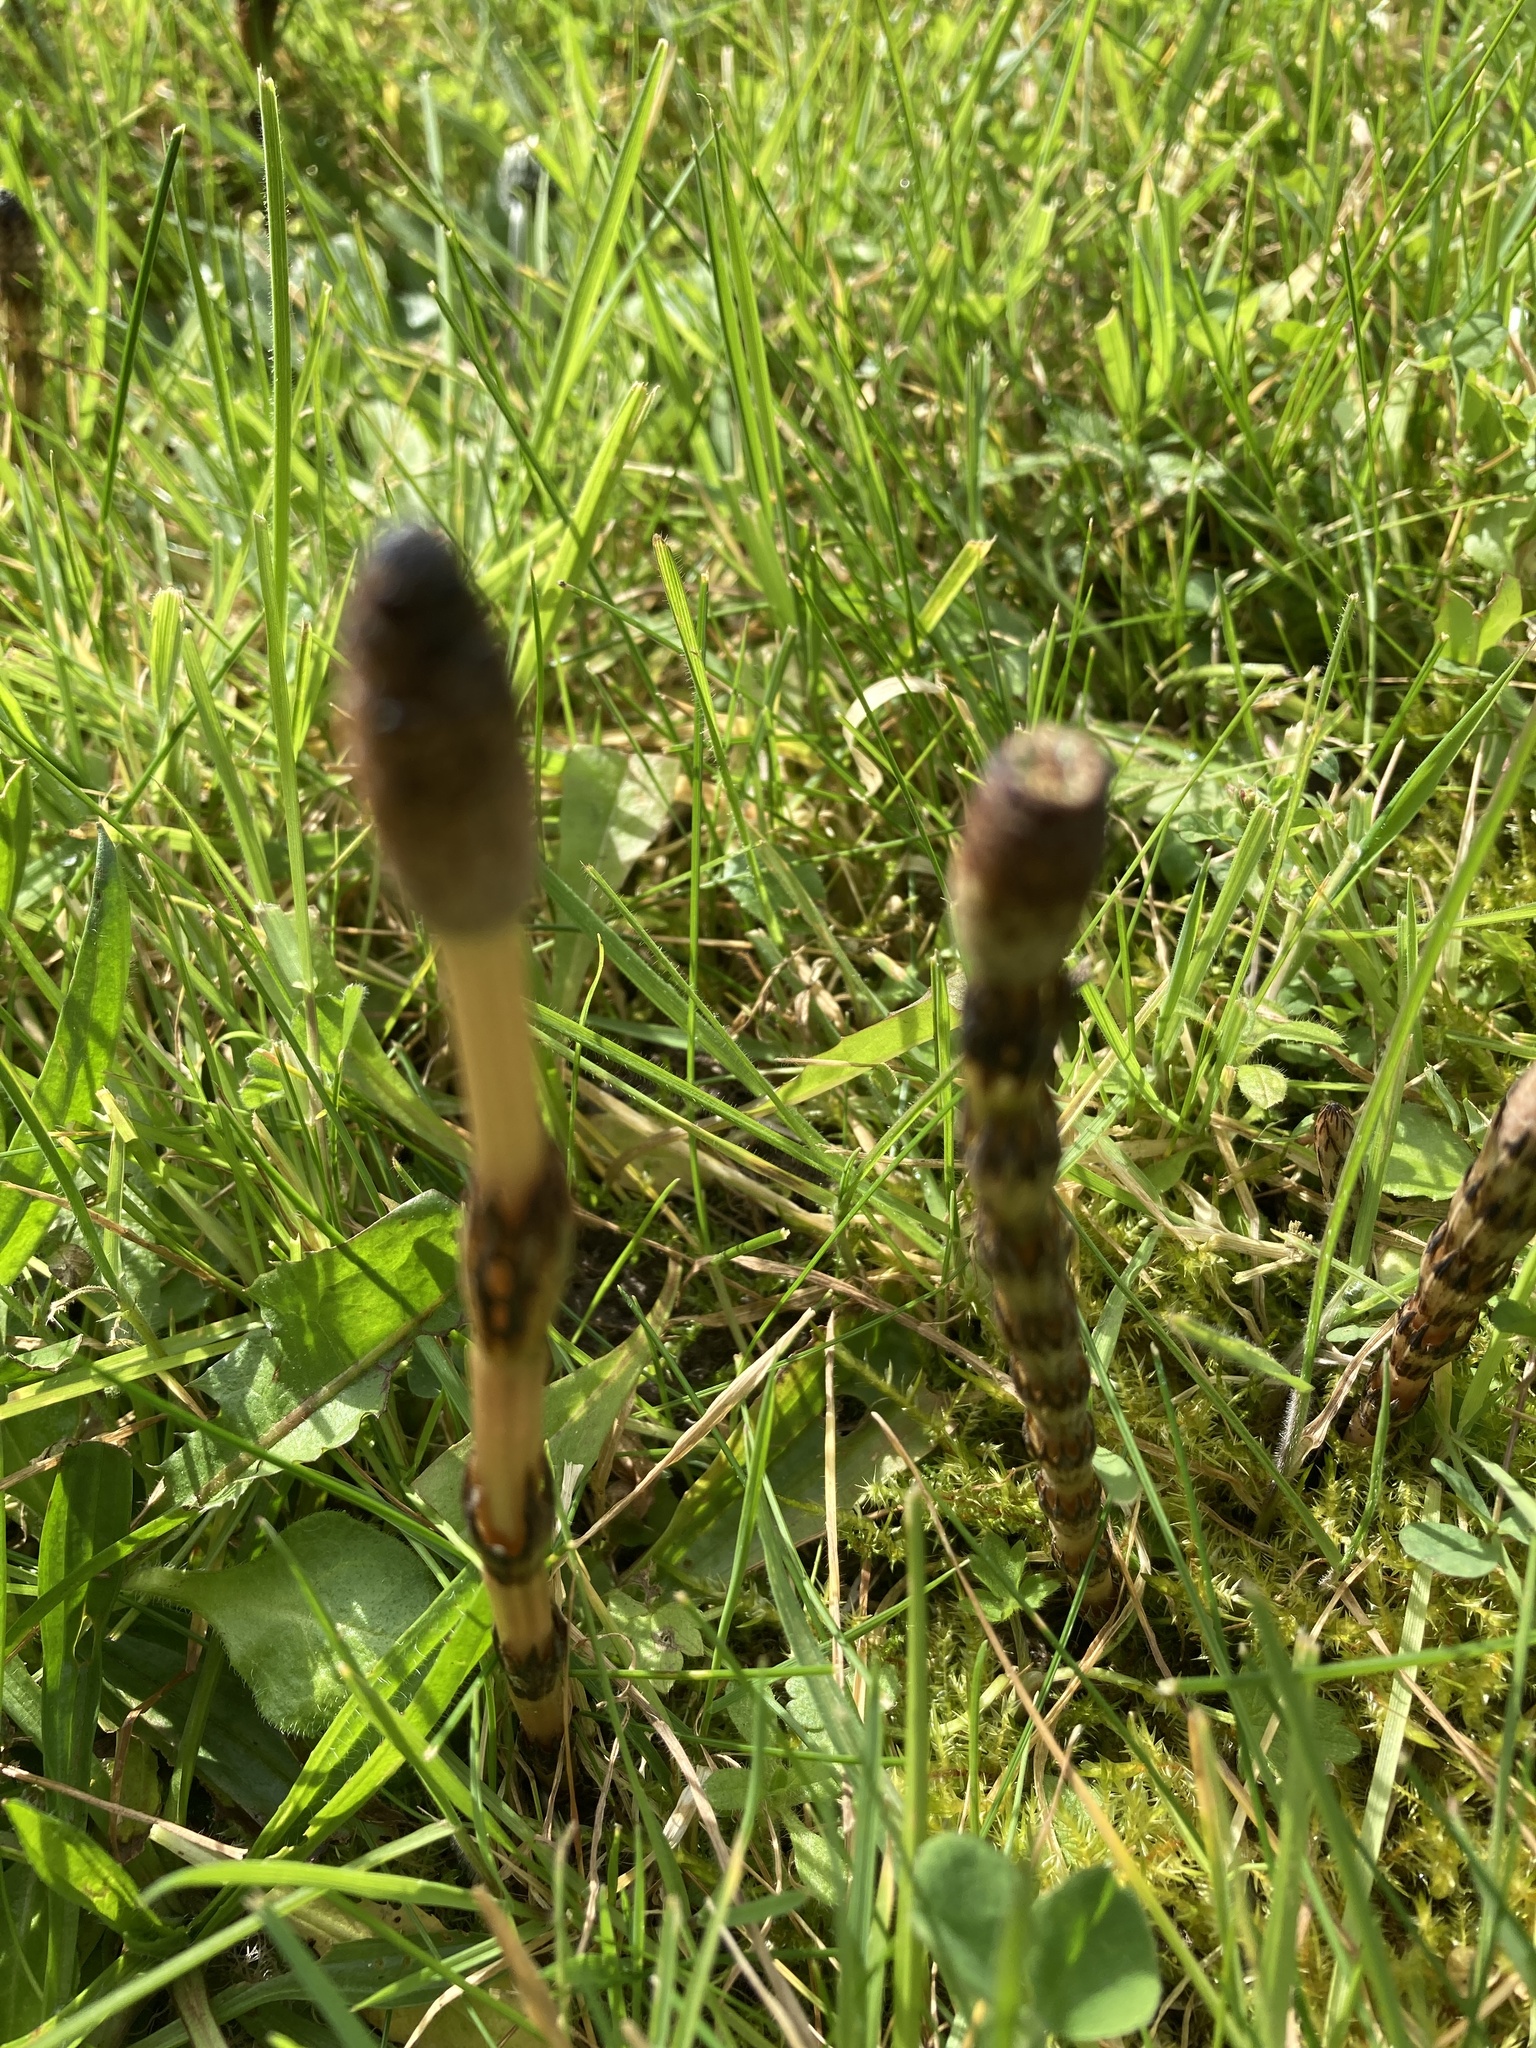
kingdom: Plantae
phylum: Tracheophyta
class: Polypodiopsida
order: Equisetales
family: Equisetaceae
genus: Equisetum
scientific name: Equisetum arvense
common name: Field horsetail
